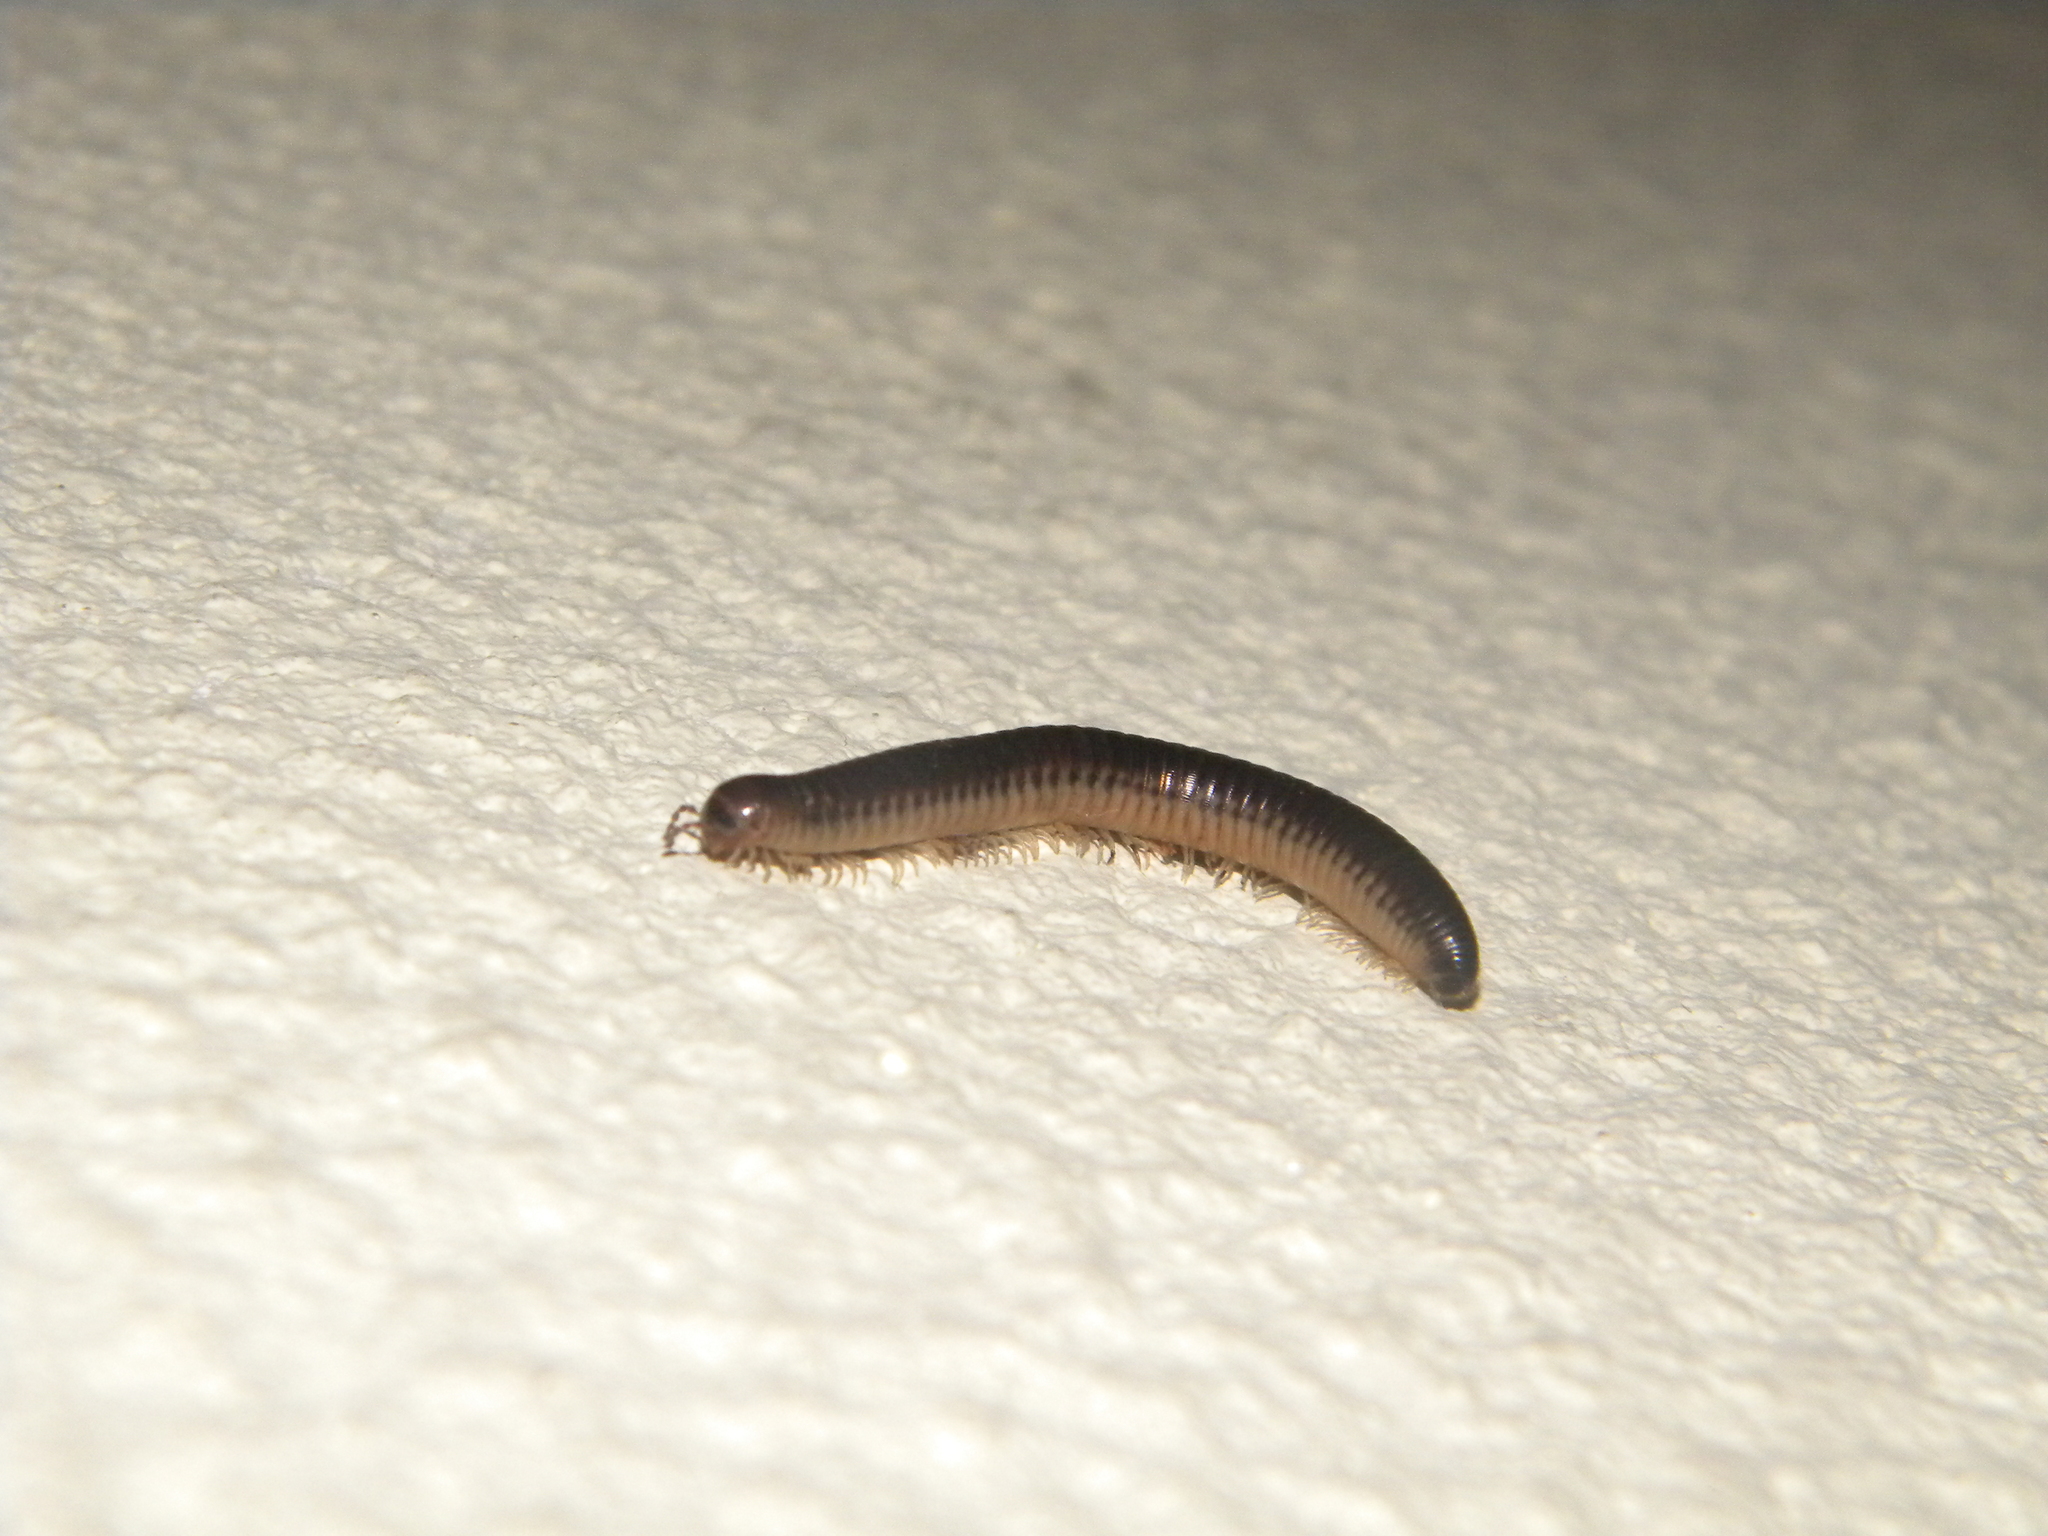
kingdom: Animalia
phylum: Arthropoda
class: Diplopoda
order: Julida
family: Julidae
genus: Pachyiulus
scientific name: Pachyiulus flavipes
